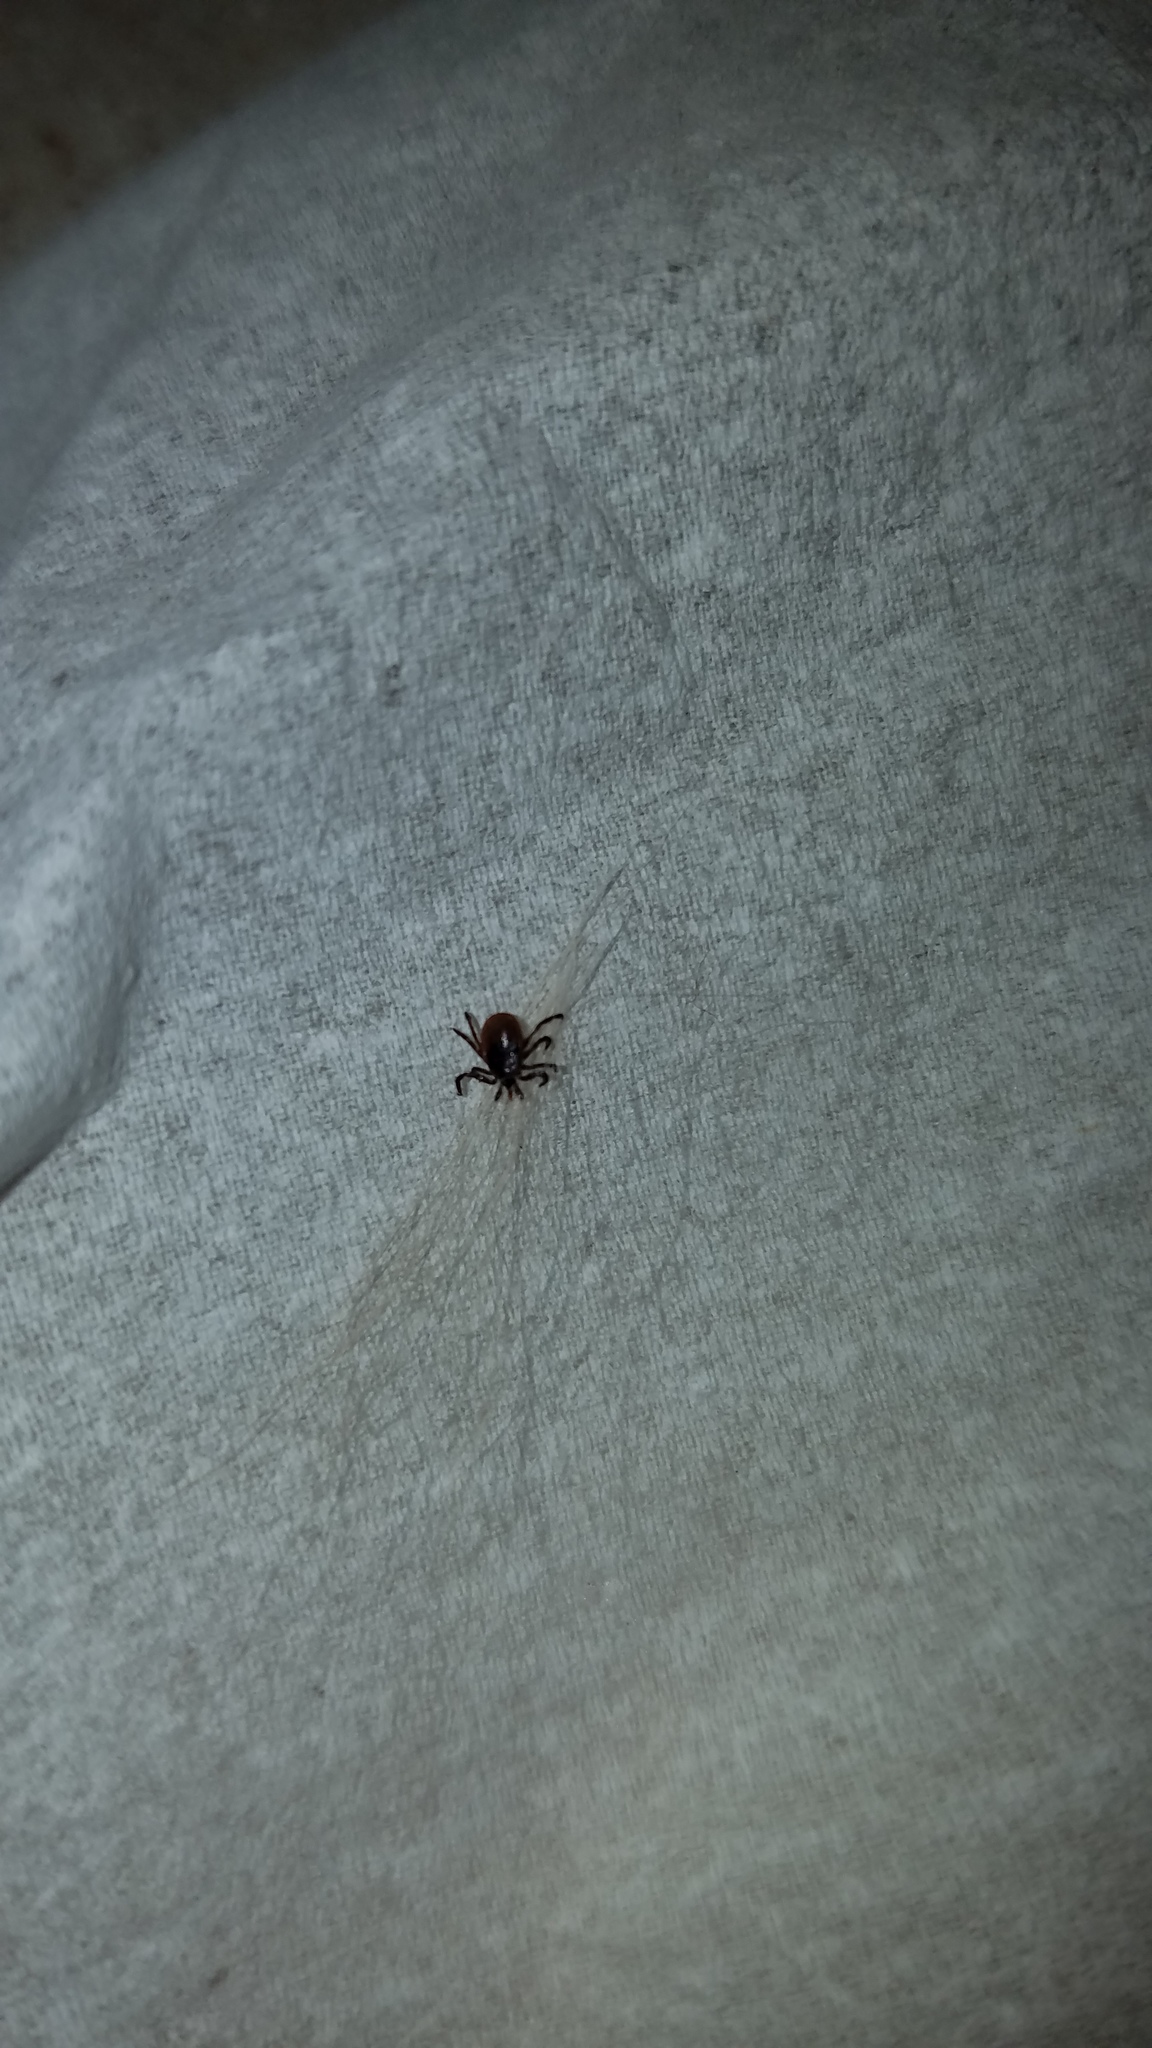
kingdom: Animalia
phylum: Arthropoda
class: Arachnida
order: Ixodida
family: Ixodidae
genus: Ixodes
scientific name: Ixodes scapularis
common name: Black legged tick
